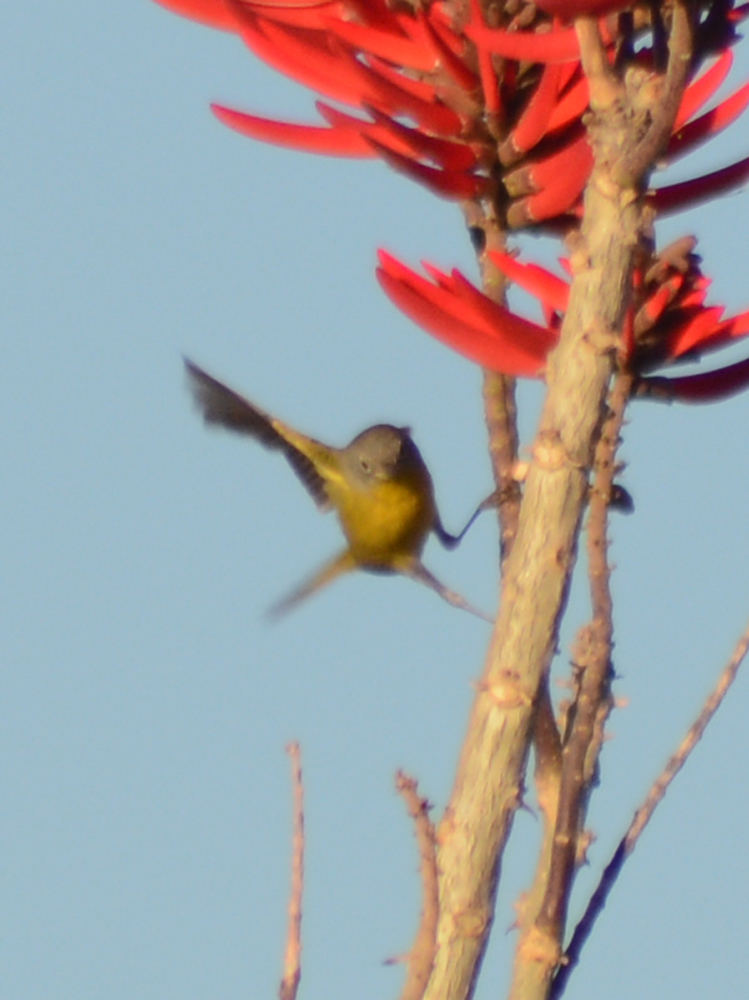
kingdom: Animalia
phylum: Chordata
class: Aves
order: Passeriformes
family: Parulidae
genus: Leiothlypis
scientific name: Leiothlypis ruficapilla
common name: Nashville warbler
